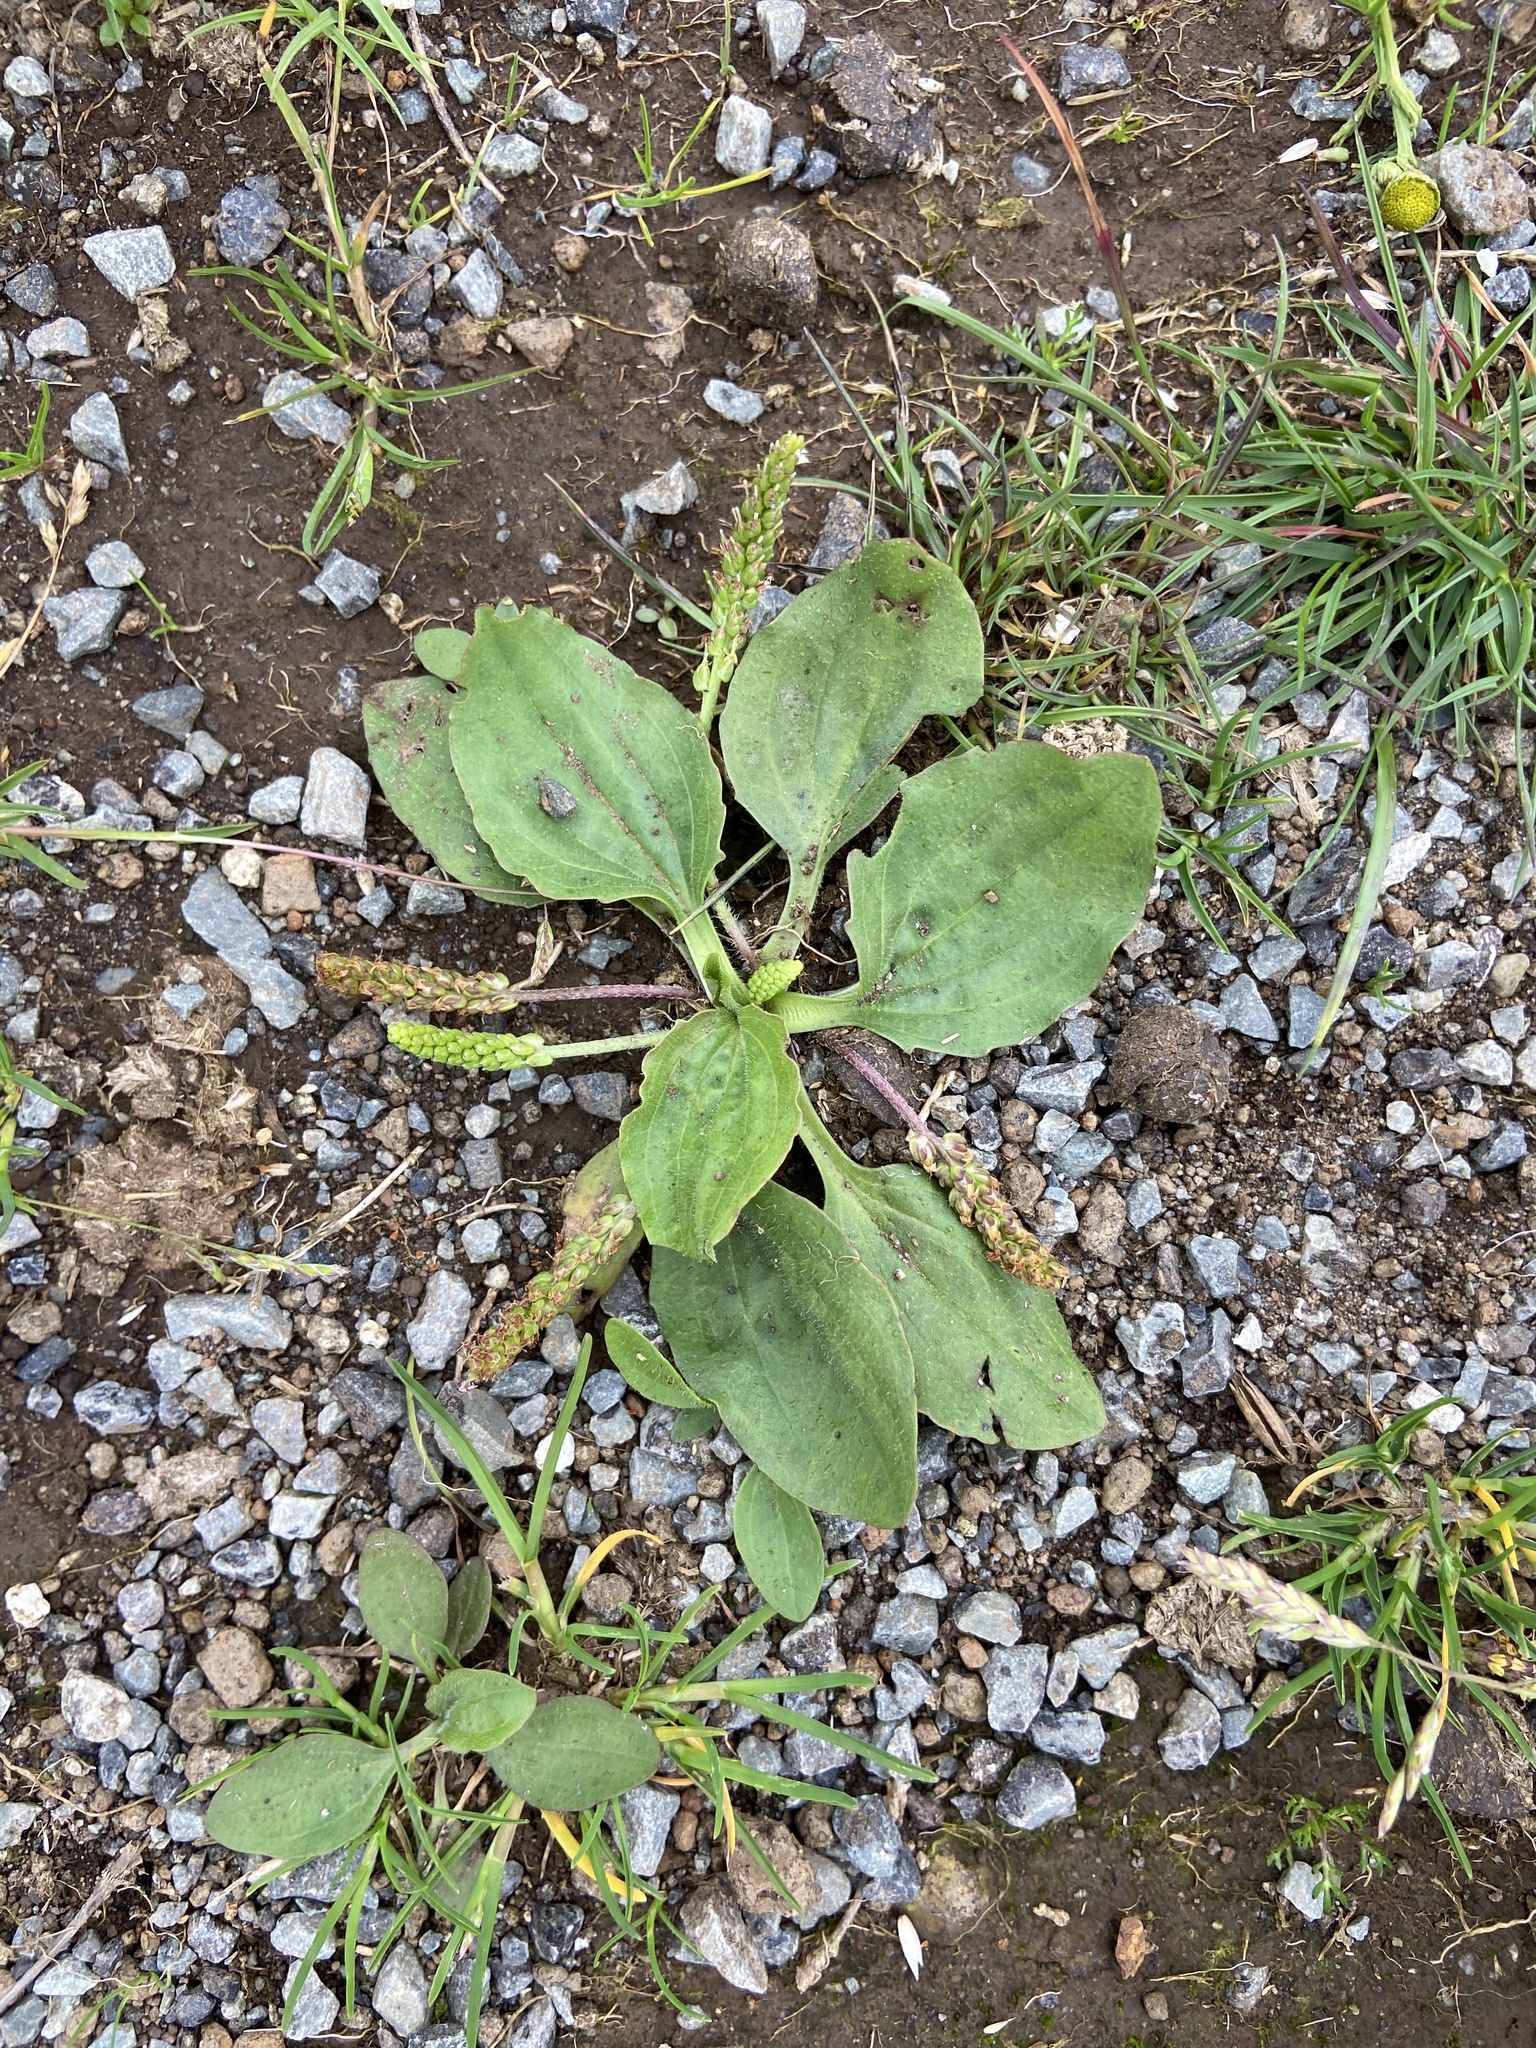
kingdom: Plantae
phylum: Tracheophyta
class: Magnoliopsida
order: Lamiales
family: Plantaginaceae
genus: Plantago
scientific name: Plantago major
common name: Common plantain
